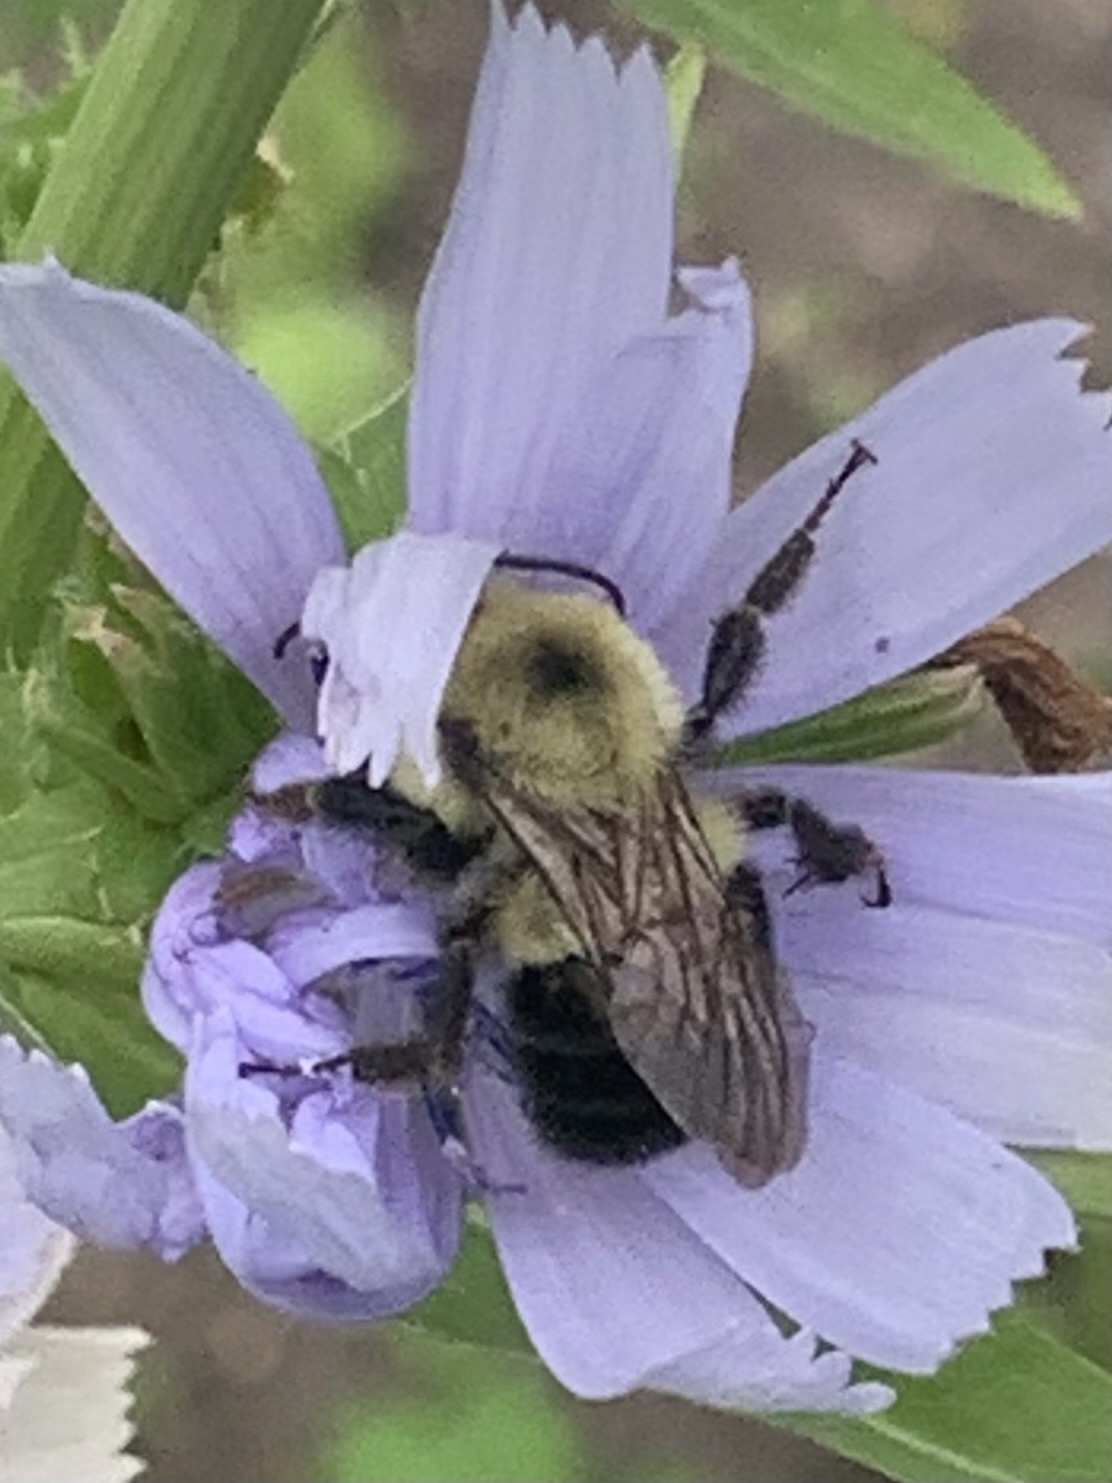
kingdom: Animalia
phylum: Arthropoda
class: Insecta
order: Hymenoptera
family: Apidae
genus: Bombus
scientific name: Bombus bimaculatus
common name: Two-spotted bumble bee
